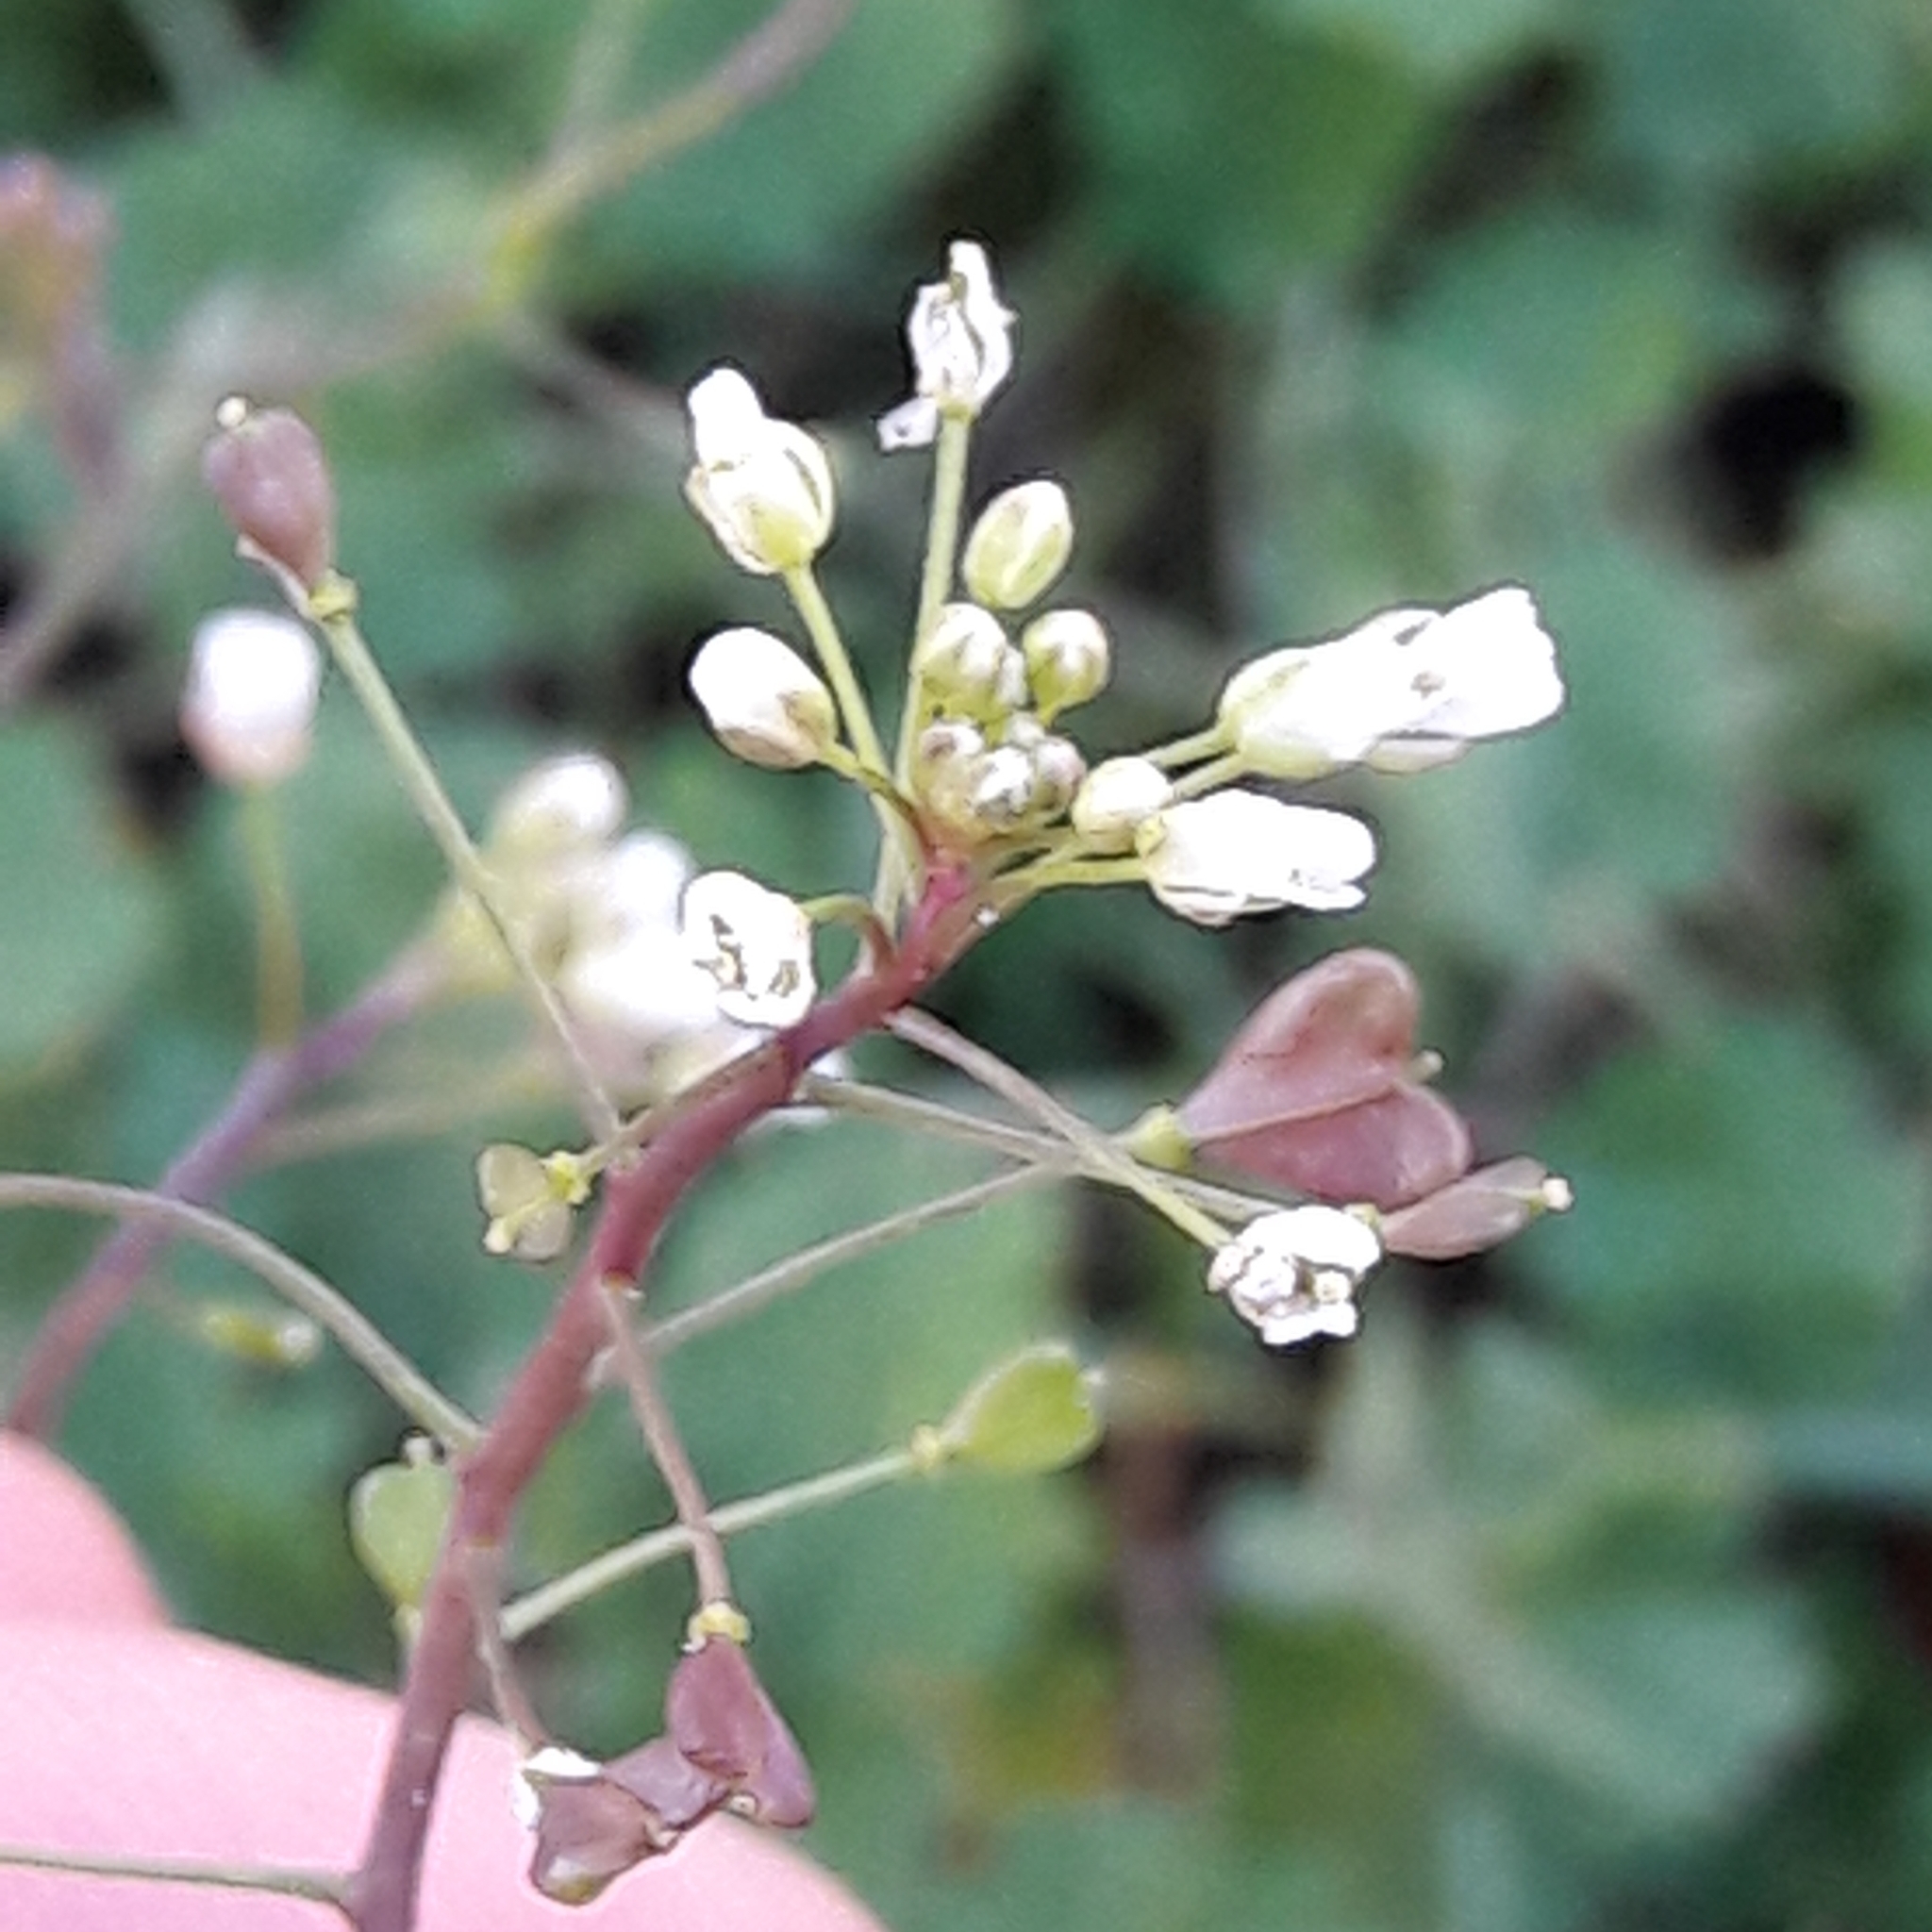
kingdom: Plantae
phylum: Tracheophyta
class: Magnoliopsida
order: Brassicales
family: Brassicaceae
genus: Capsella
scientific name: Capsella bursa-pastoris
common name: Shepherd's purse
